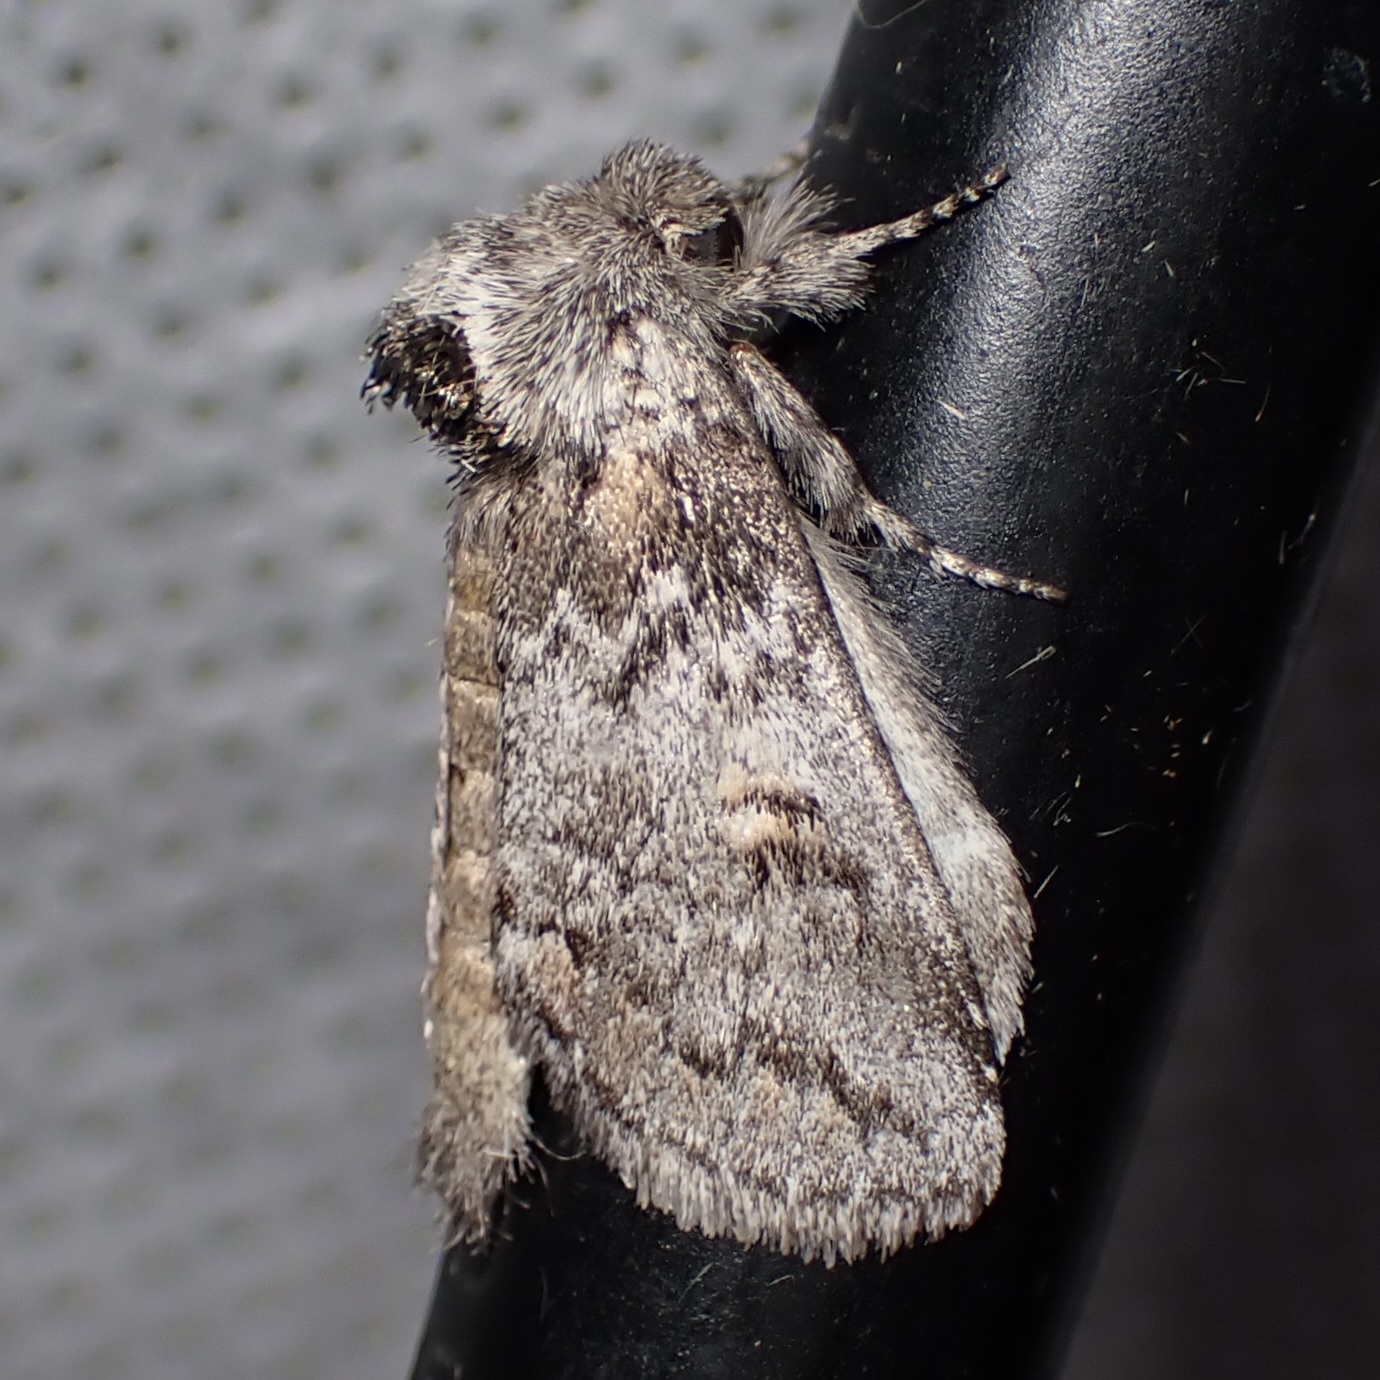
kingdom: Animalia
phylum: Arthropoda
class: Insecta
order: Lepidoptera
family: Notodontidae
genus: Kalkoma
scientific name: Kalkoma zapata
